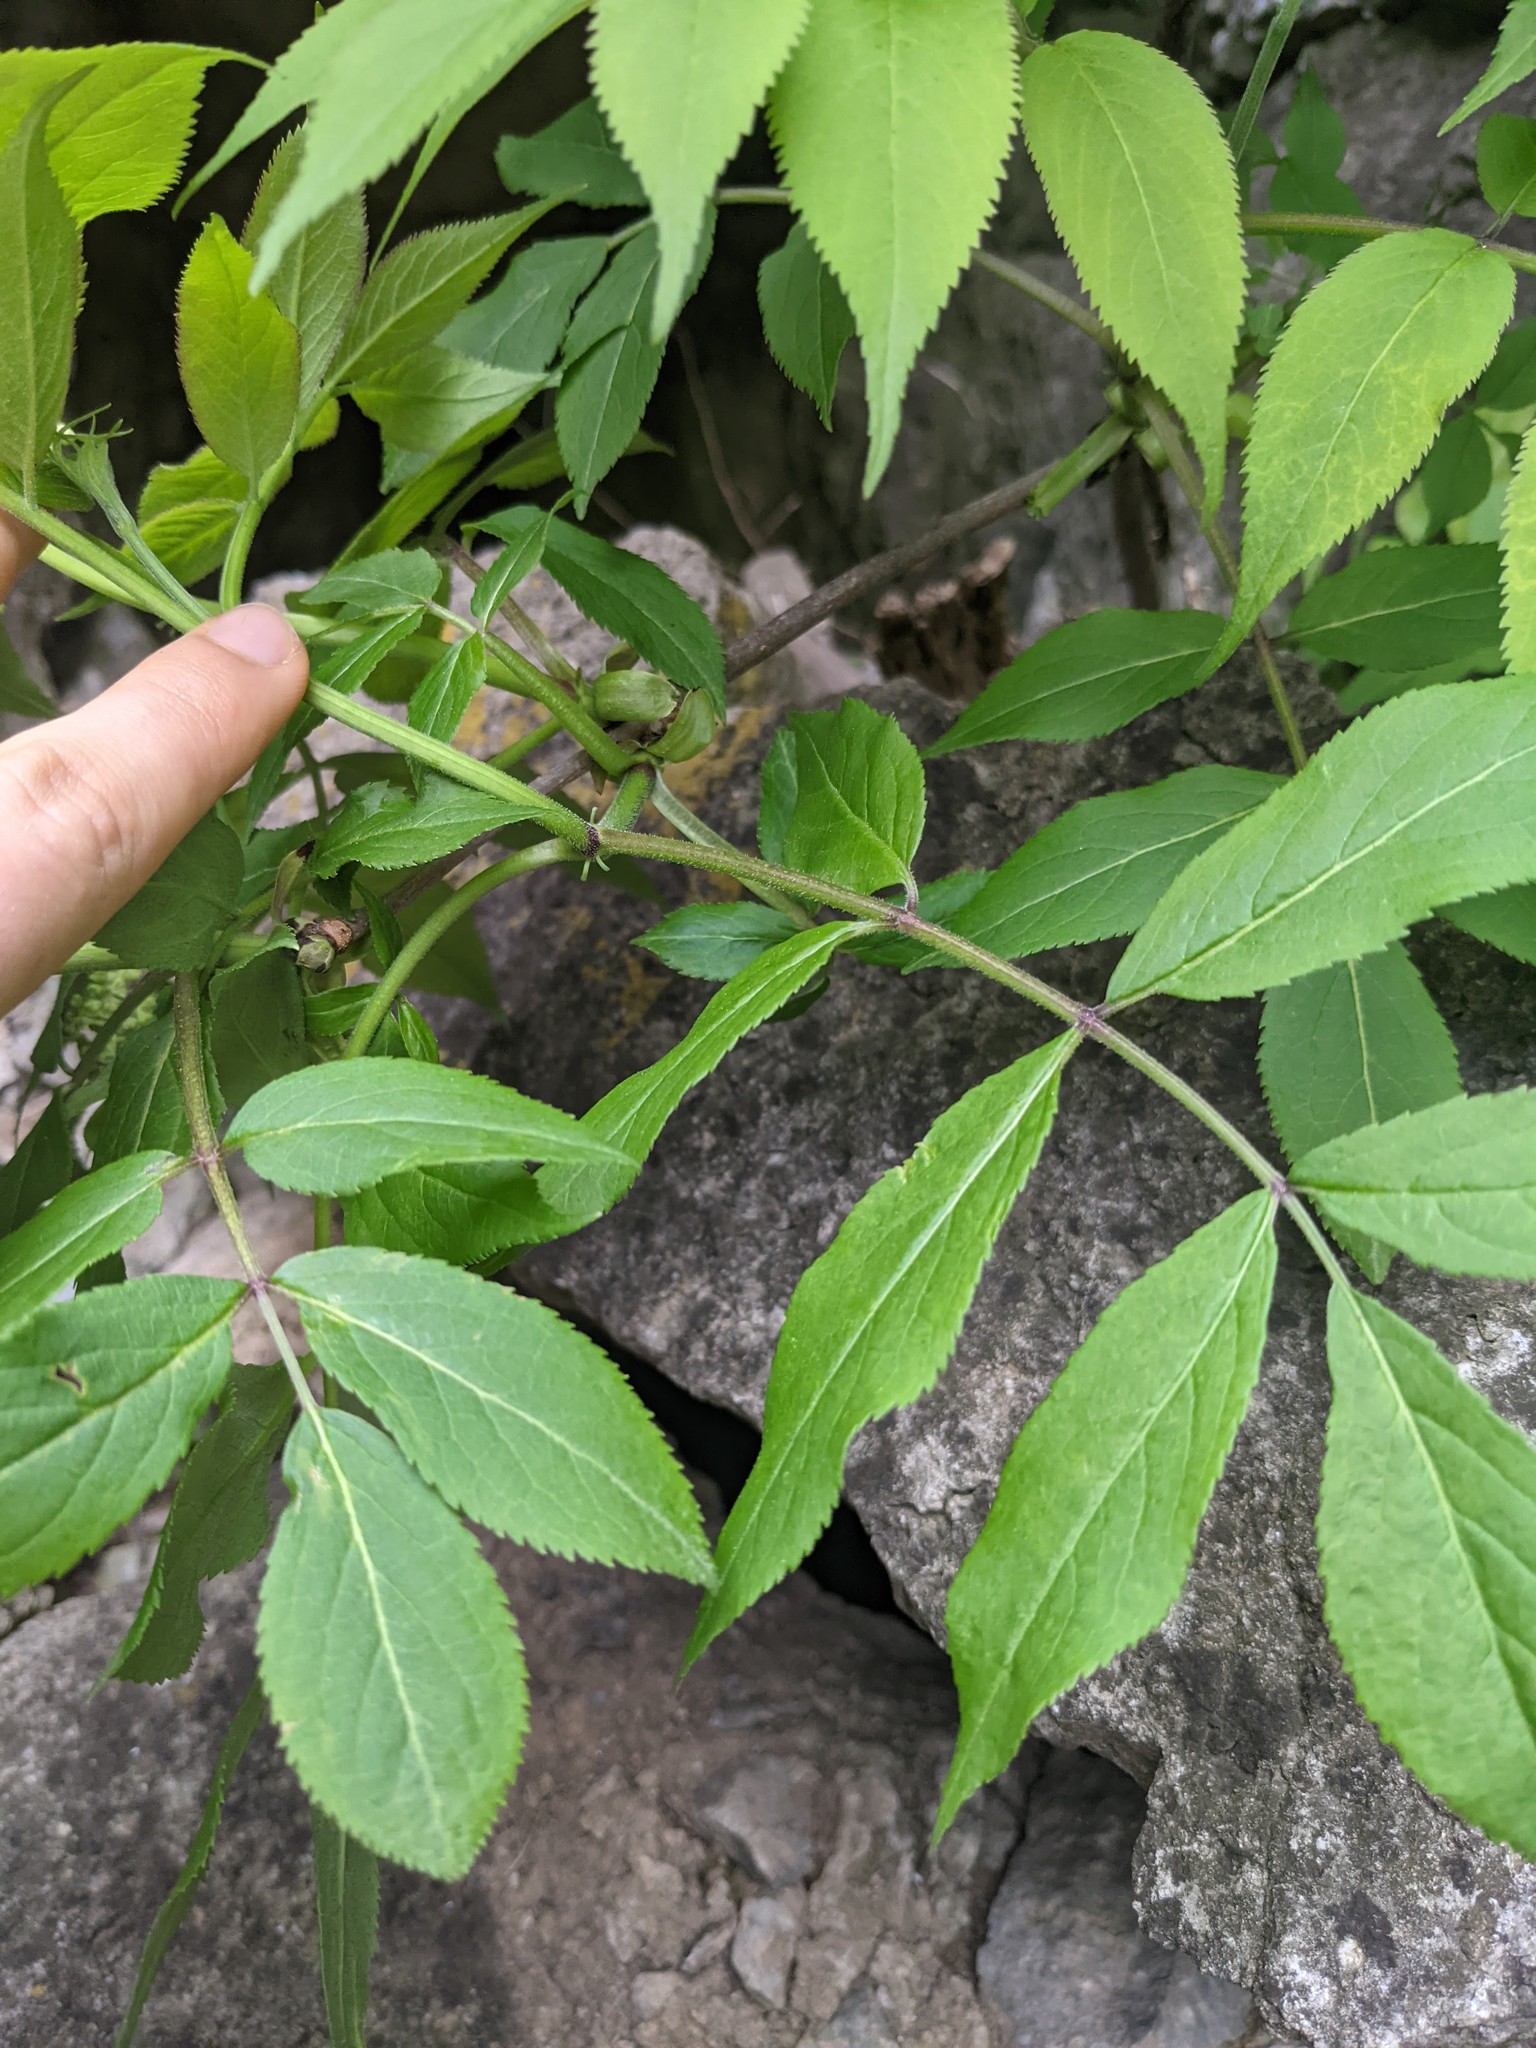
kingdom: Plantae
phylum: Tracheophyta
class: Magnoliopsida
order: Dipsacales
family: Viburnaceae
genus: Sambucus
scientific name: Sambucus racemosa
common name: Red-berried elder
